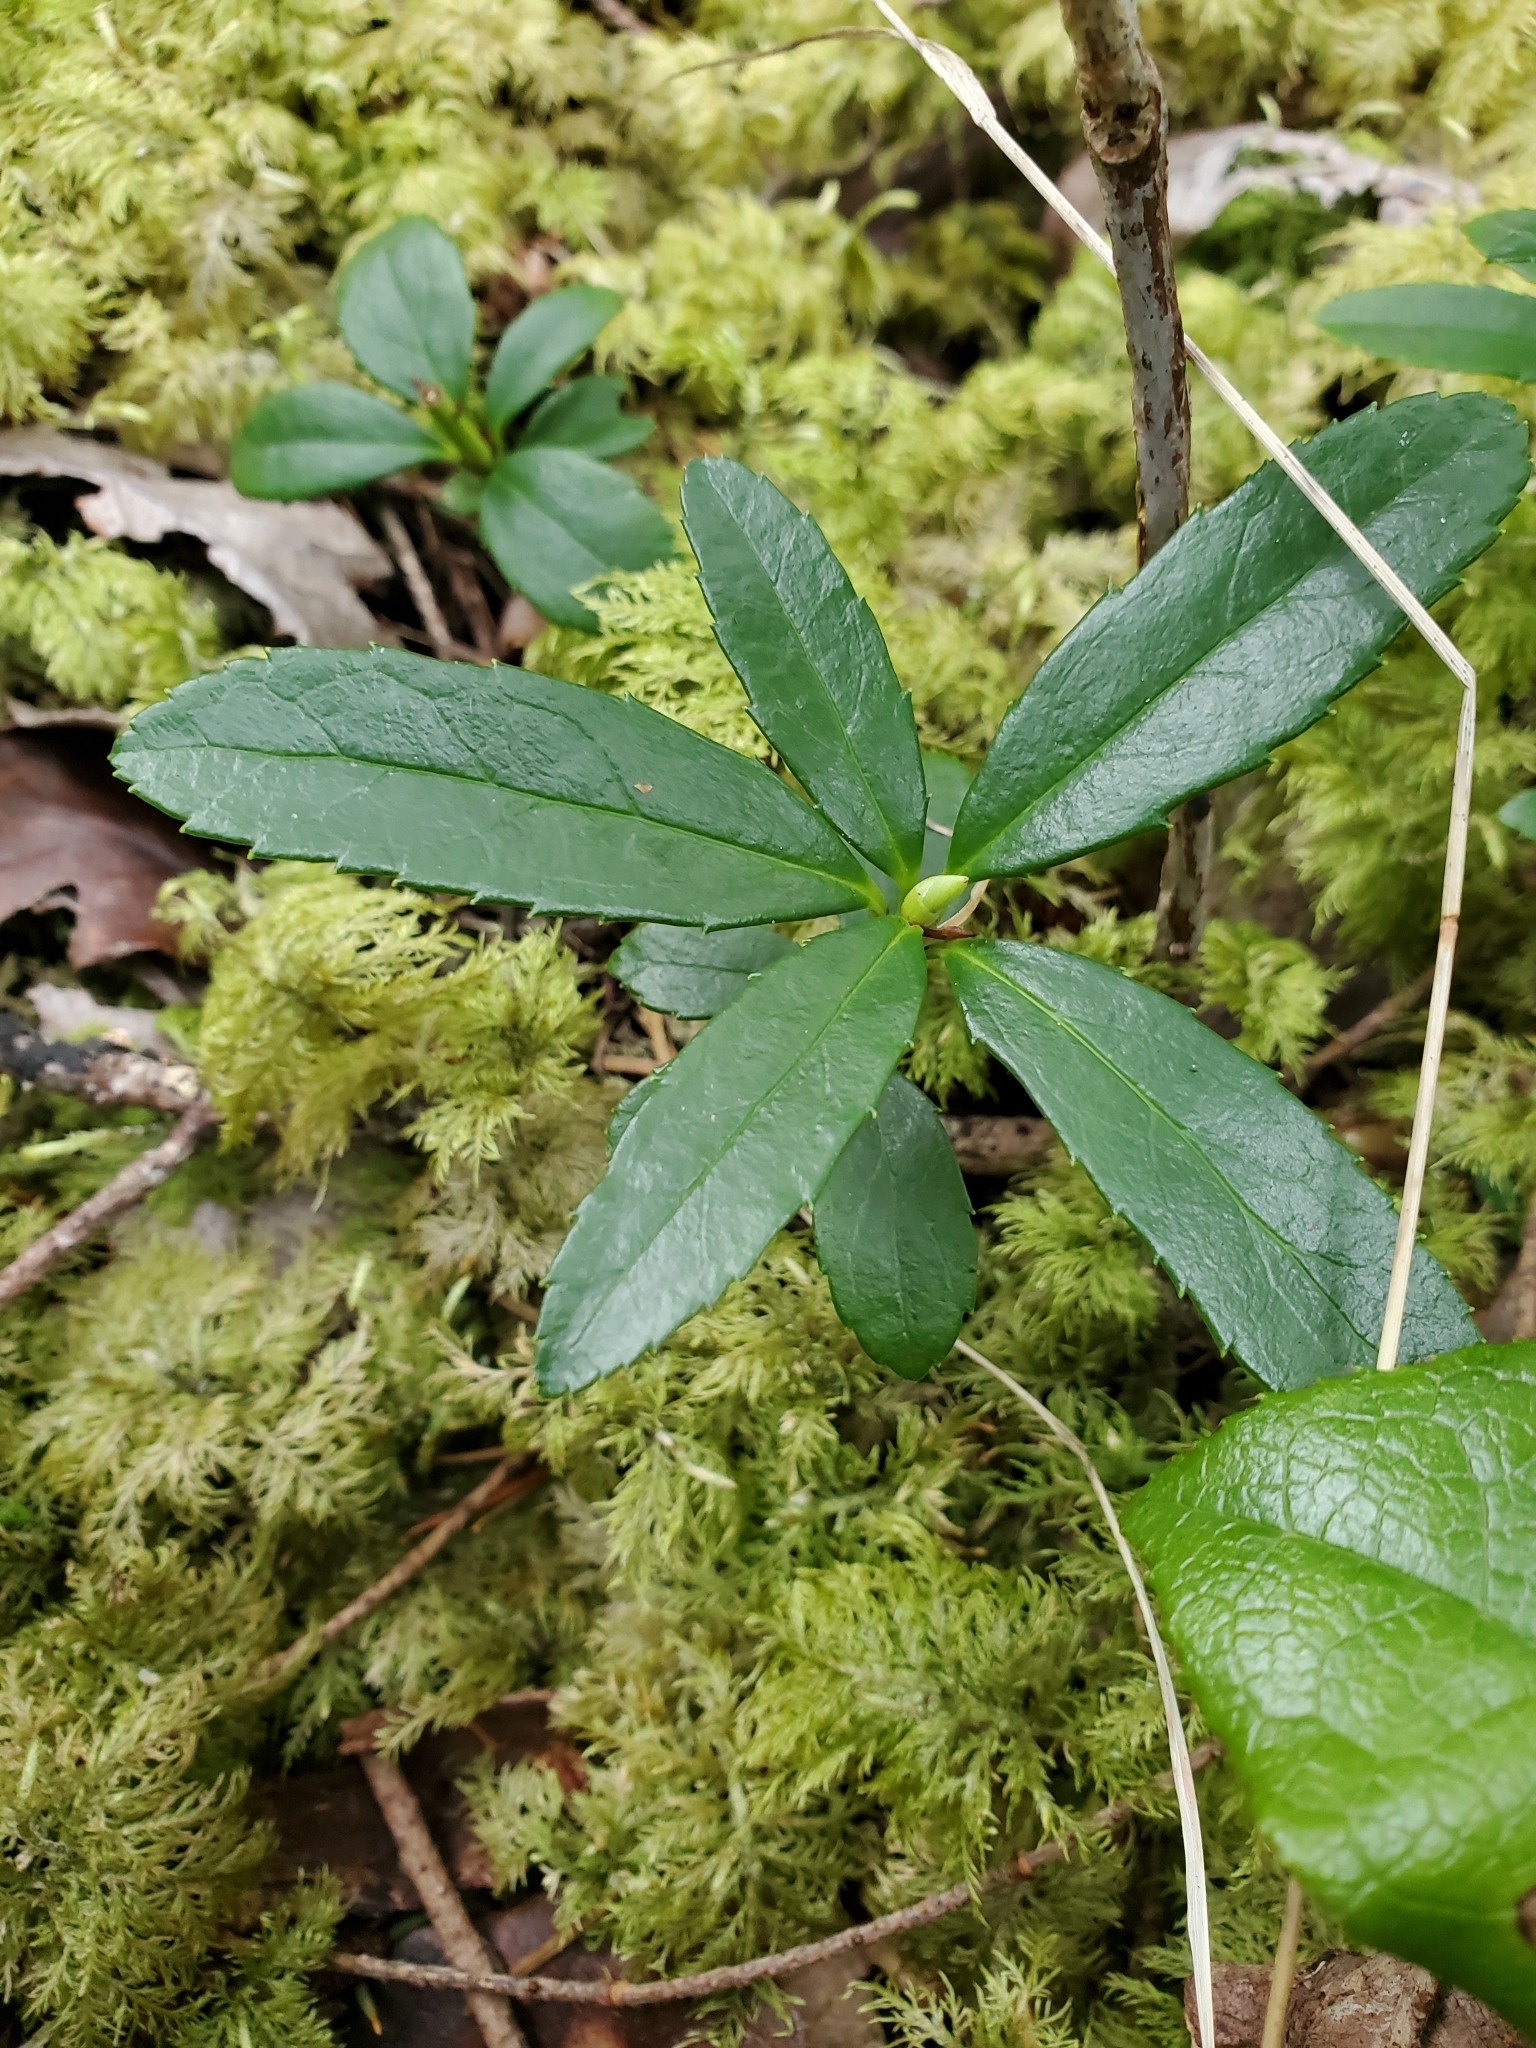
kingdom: Plantae
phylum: Tracheophyta
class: Magnoliopsida
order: Ericales
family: Ericaceae
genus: Chimaphila
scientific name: Chimaphila umbellata
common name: Pipsissewa
